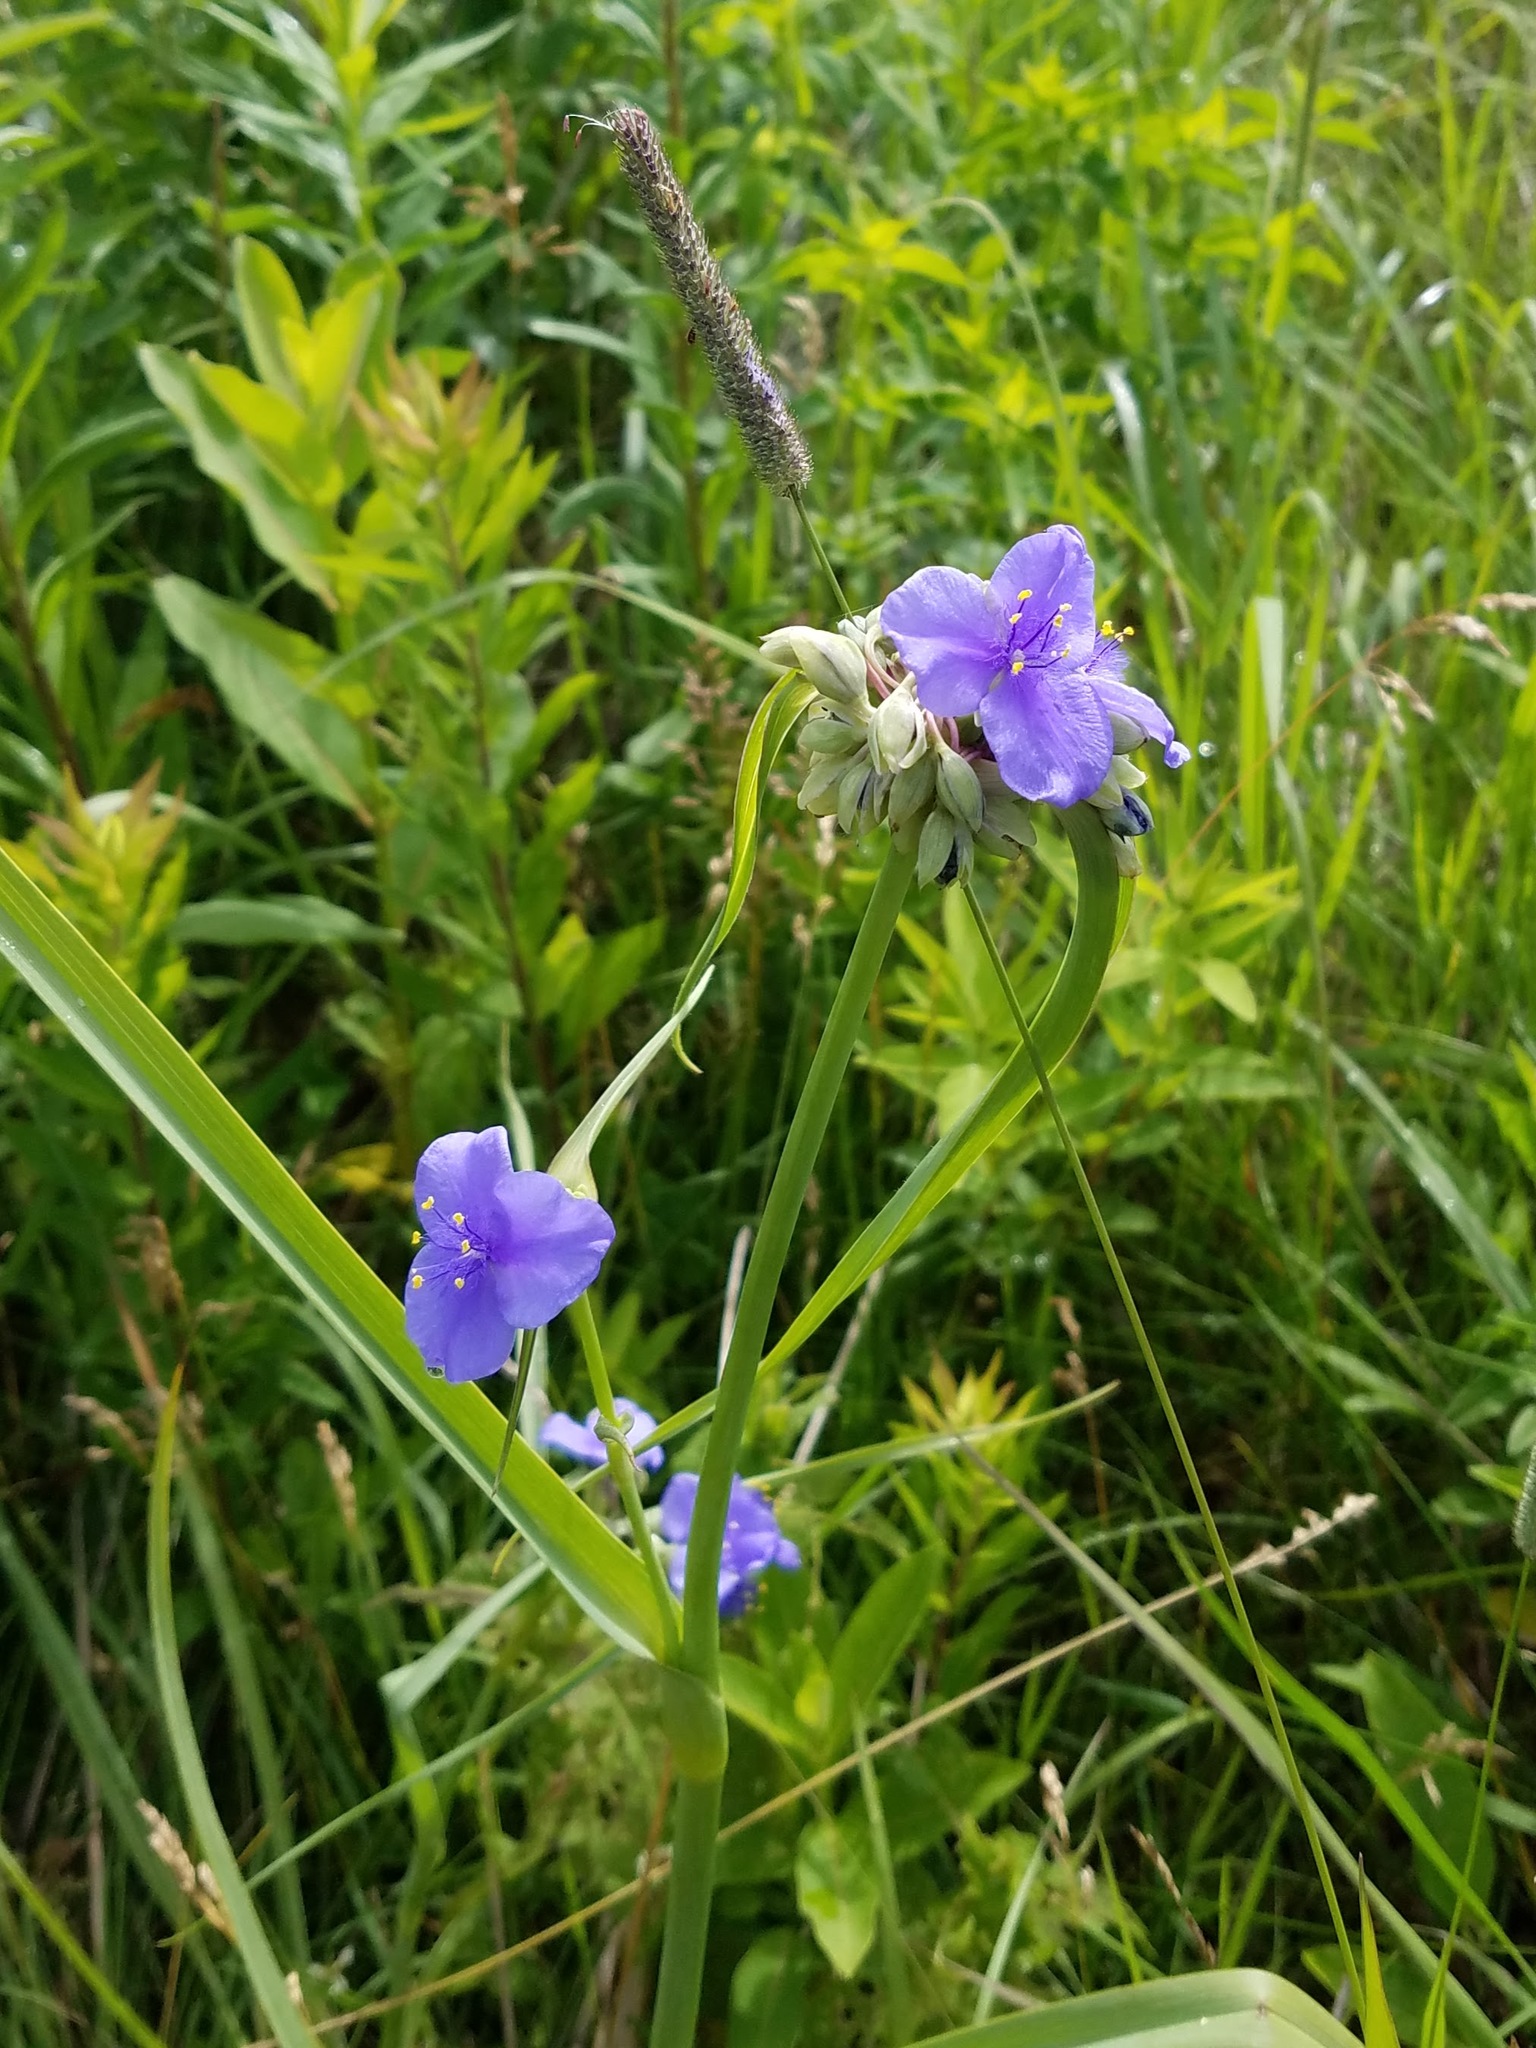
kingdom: Plantae
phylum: Tracheophyta
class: Liliopsida
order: Commelinales
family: Commelinaceae
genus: Tradescantia
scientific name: Tradescantia ohiensis
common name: Ohio spiderwort
